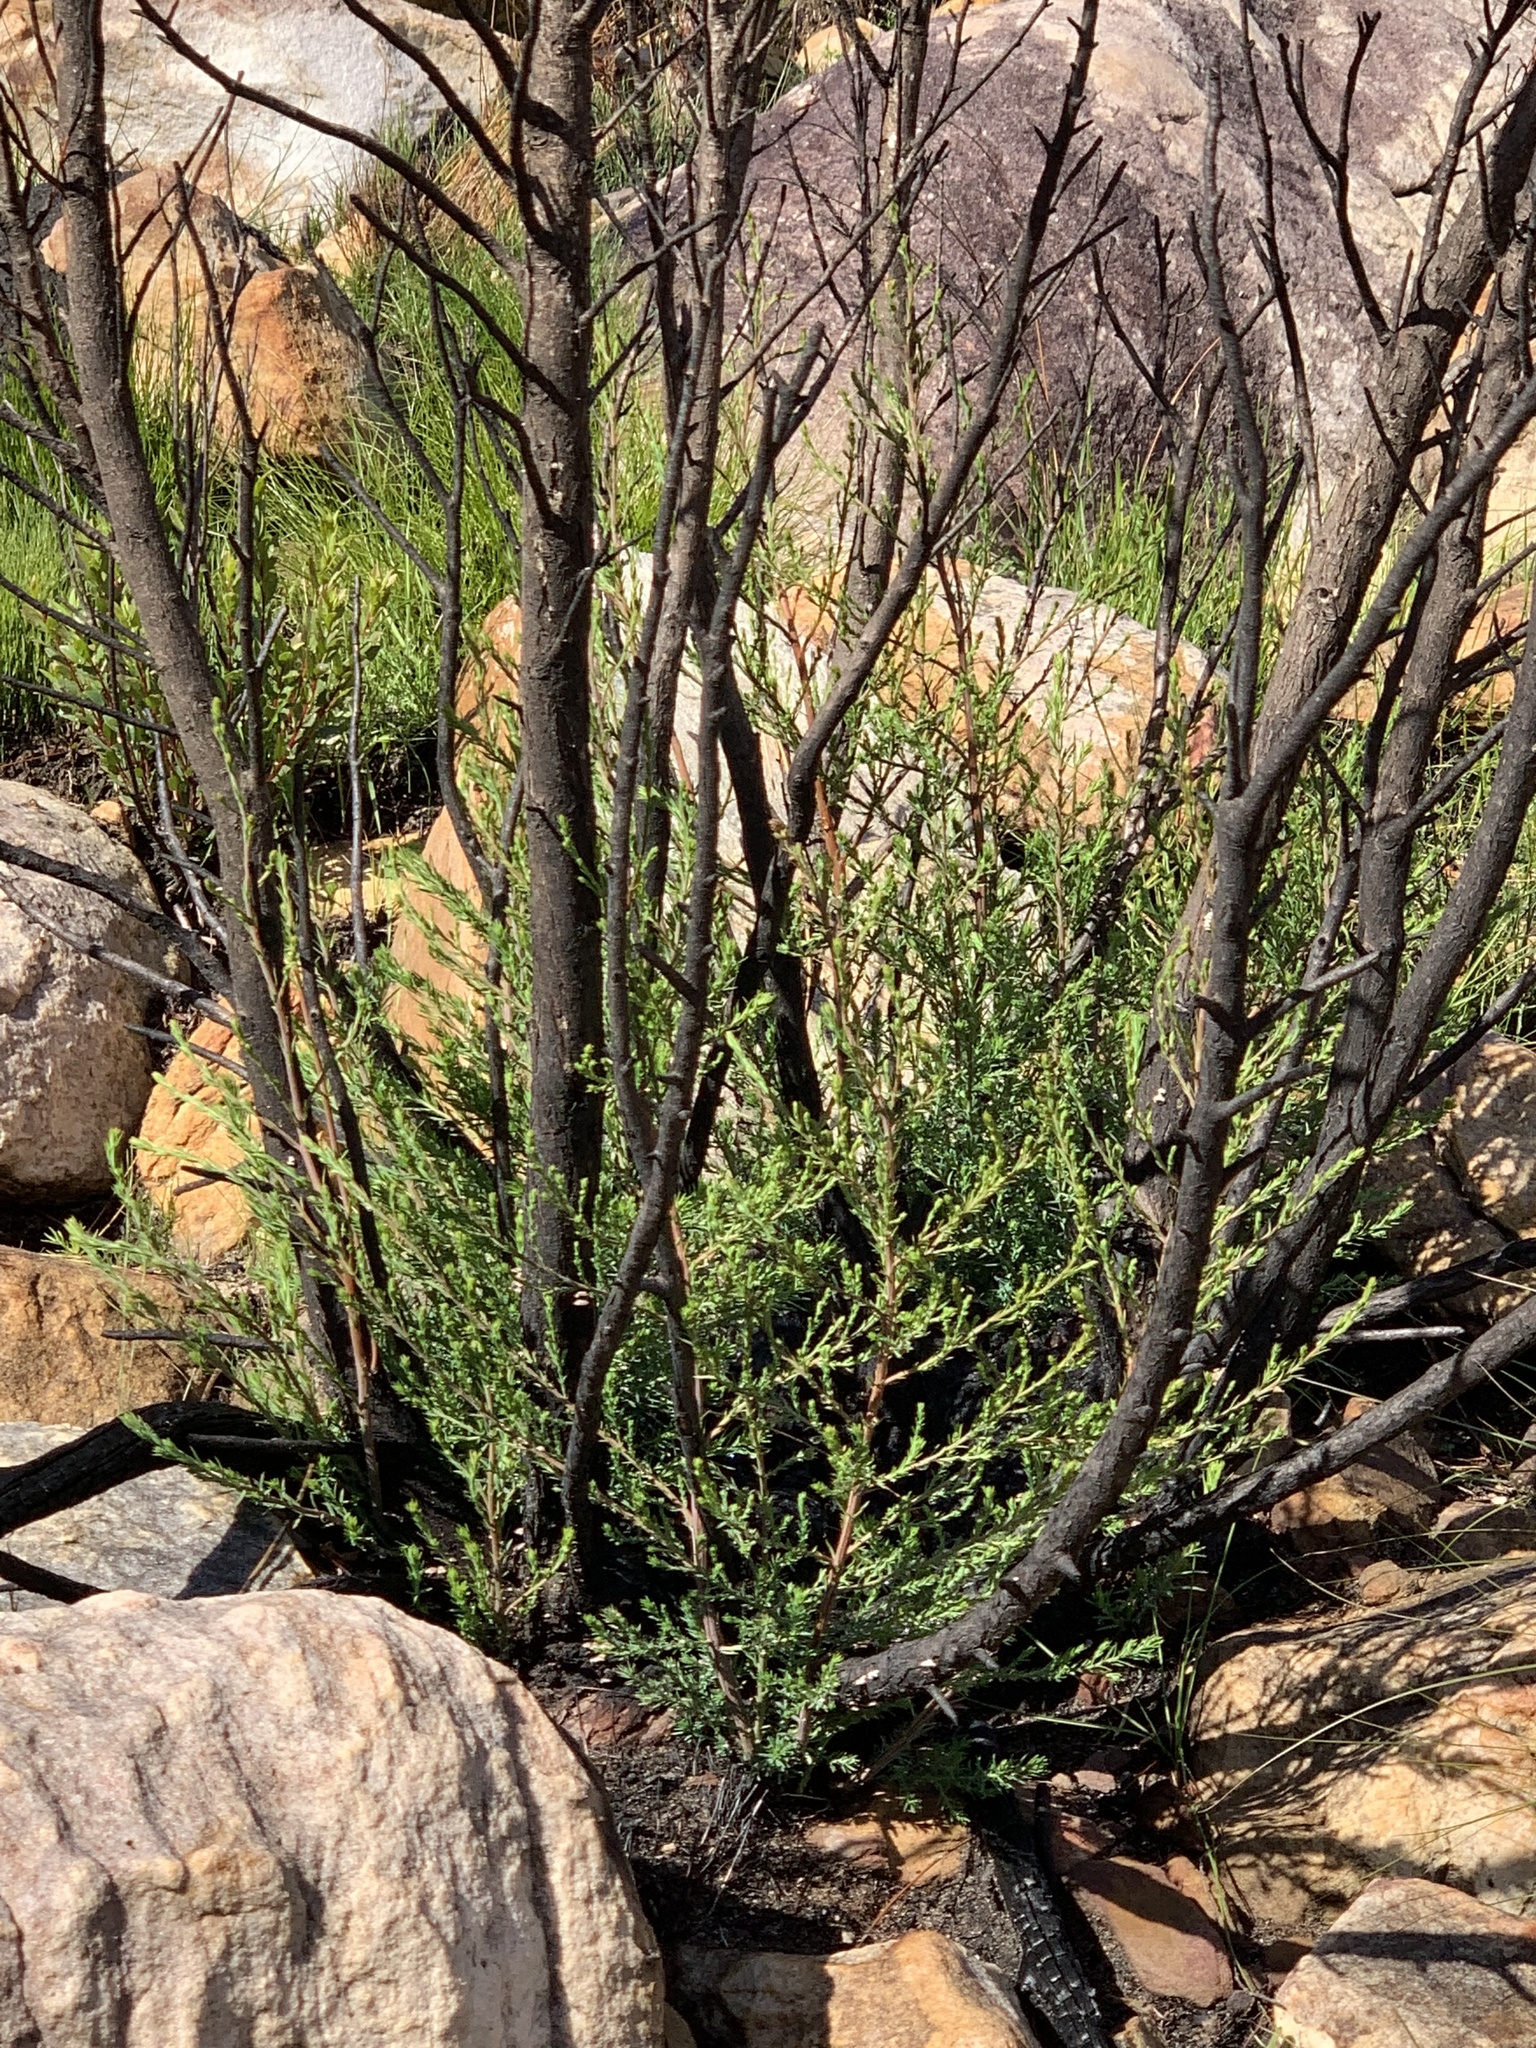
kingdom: Plantae
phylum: Tracheophyta
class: Pinopsida
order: Pinales
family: Cupressaceae
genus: Widdringtonia
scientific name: Widdringtonia nodiflora
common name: Cape cypress
